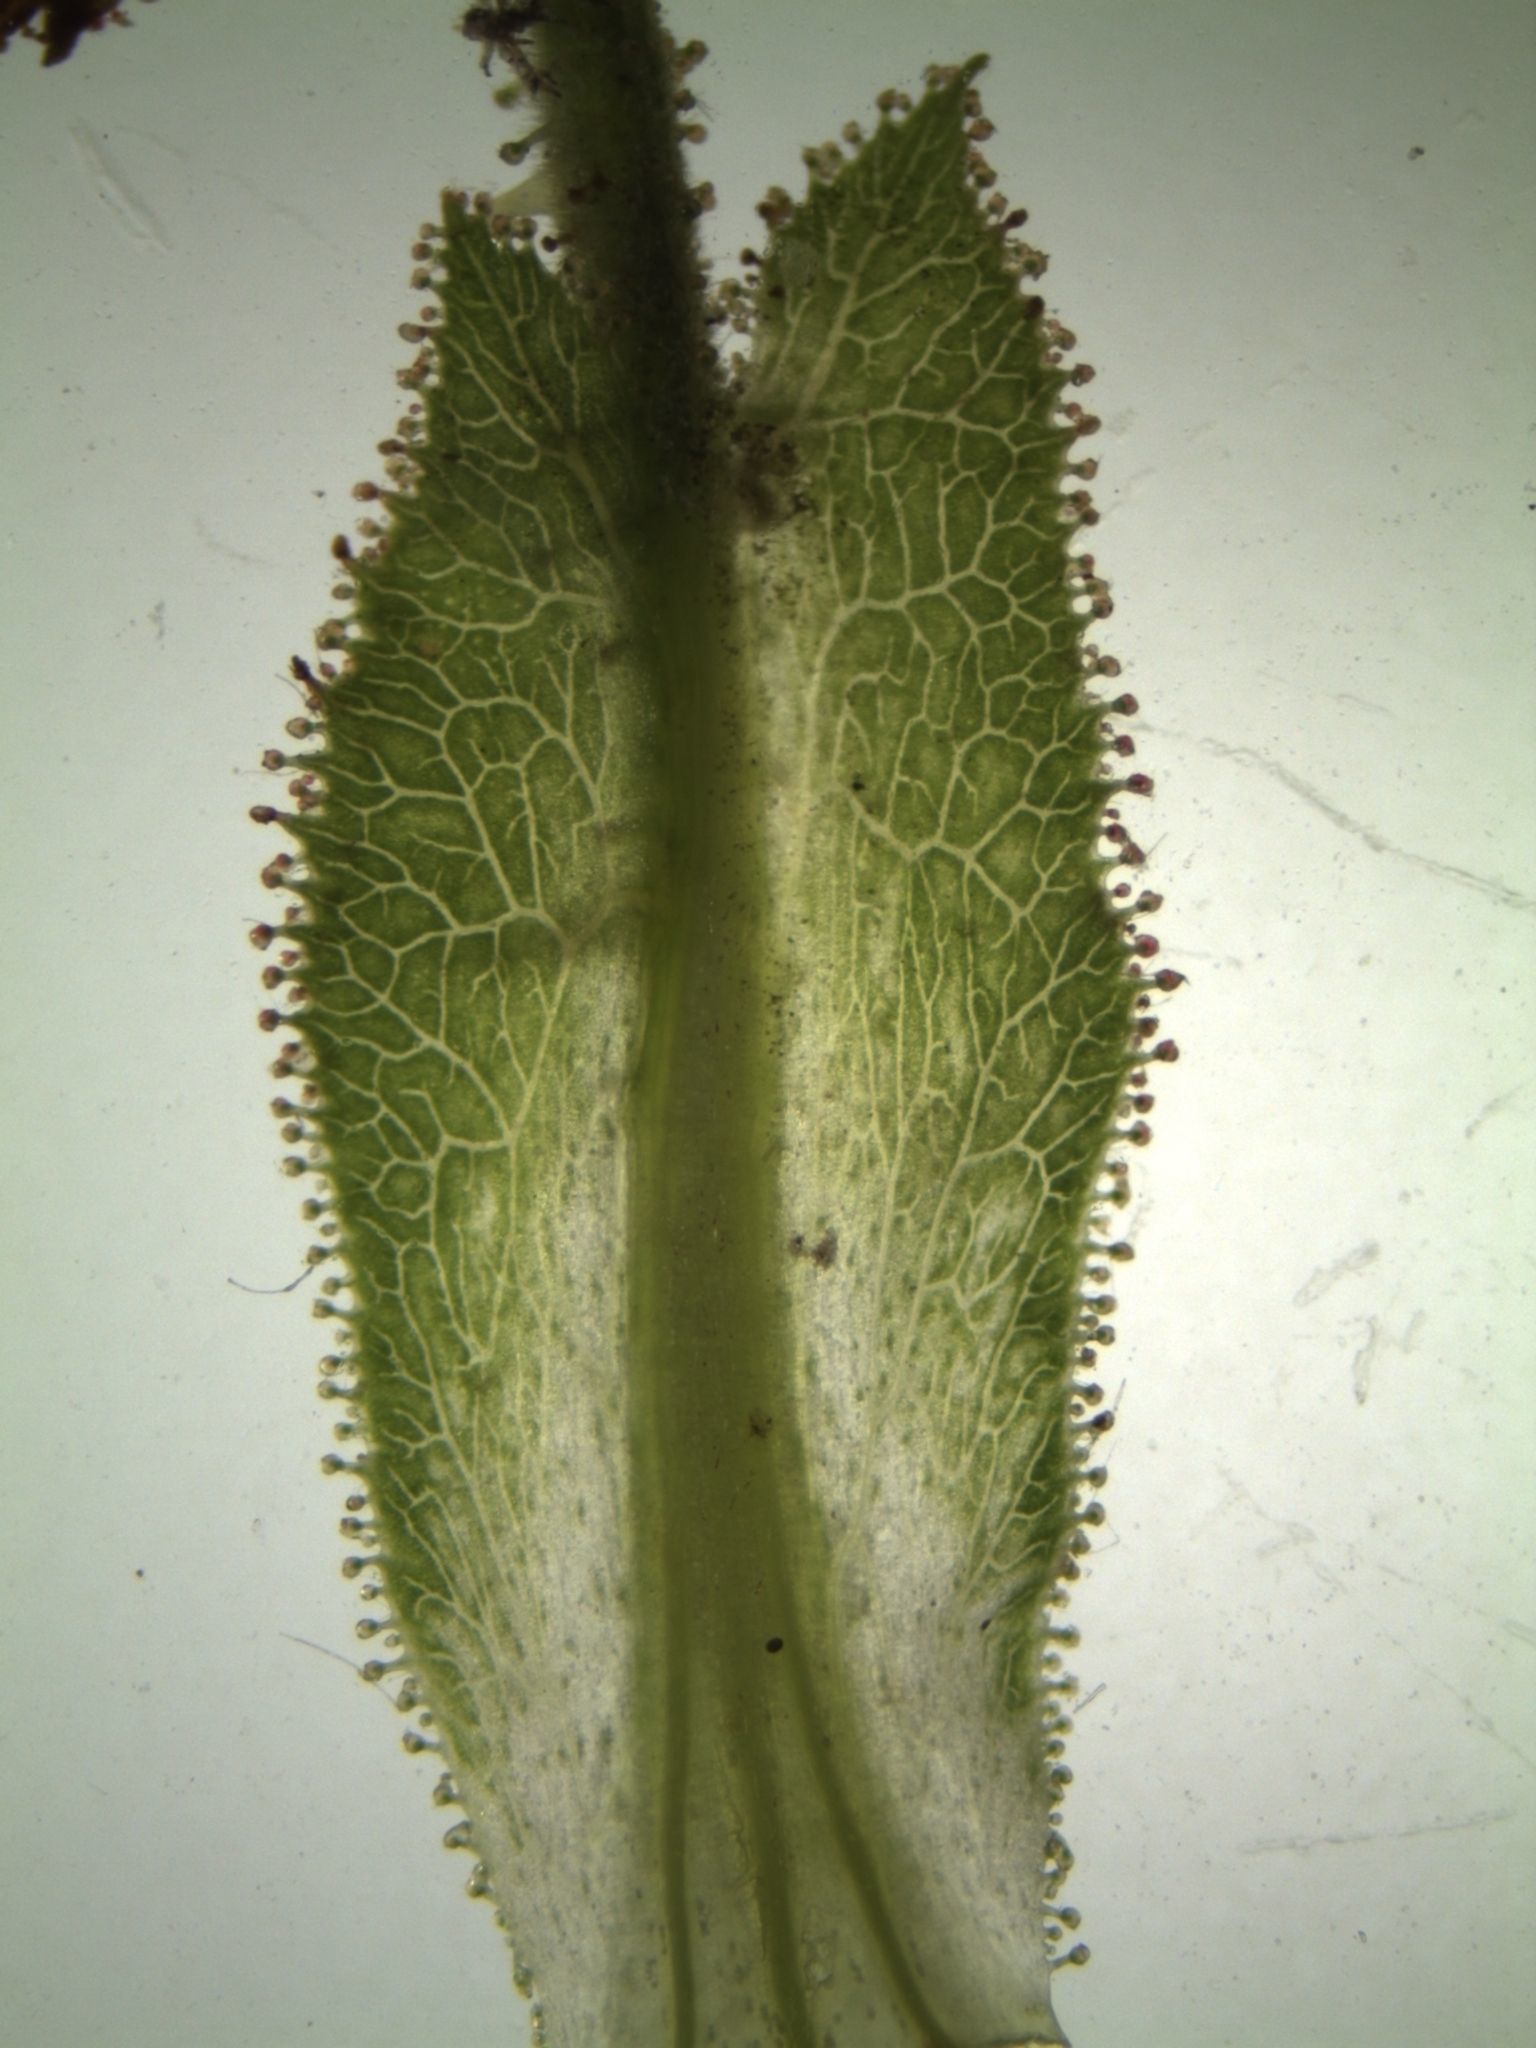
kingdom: Plantae
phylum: Tracheophyta
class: Magnoliopsida
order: Rosales
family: Rosaceae
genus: Rosa
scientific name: Rosa rubiginosa
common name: Sweet-briar
